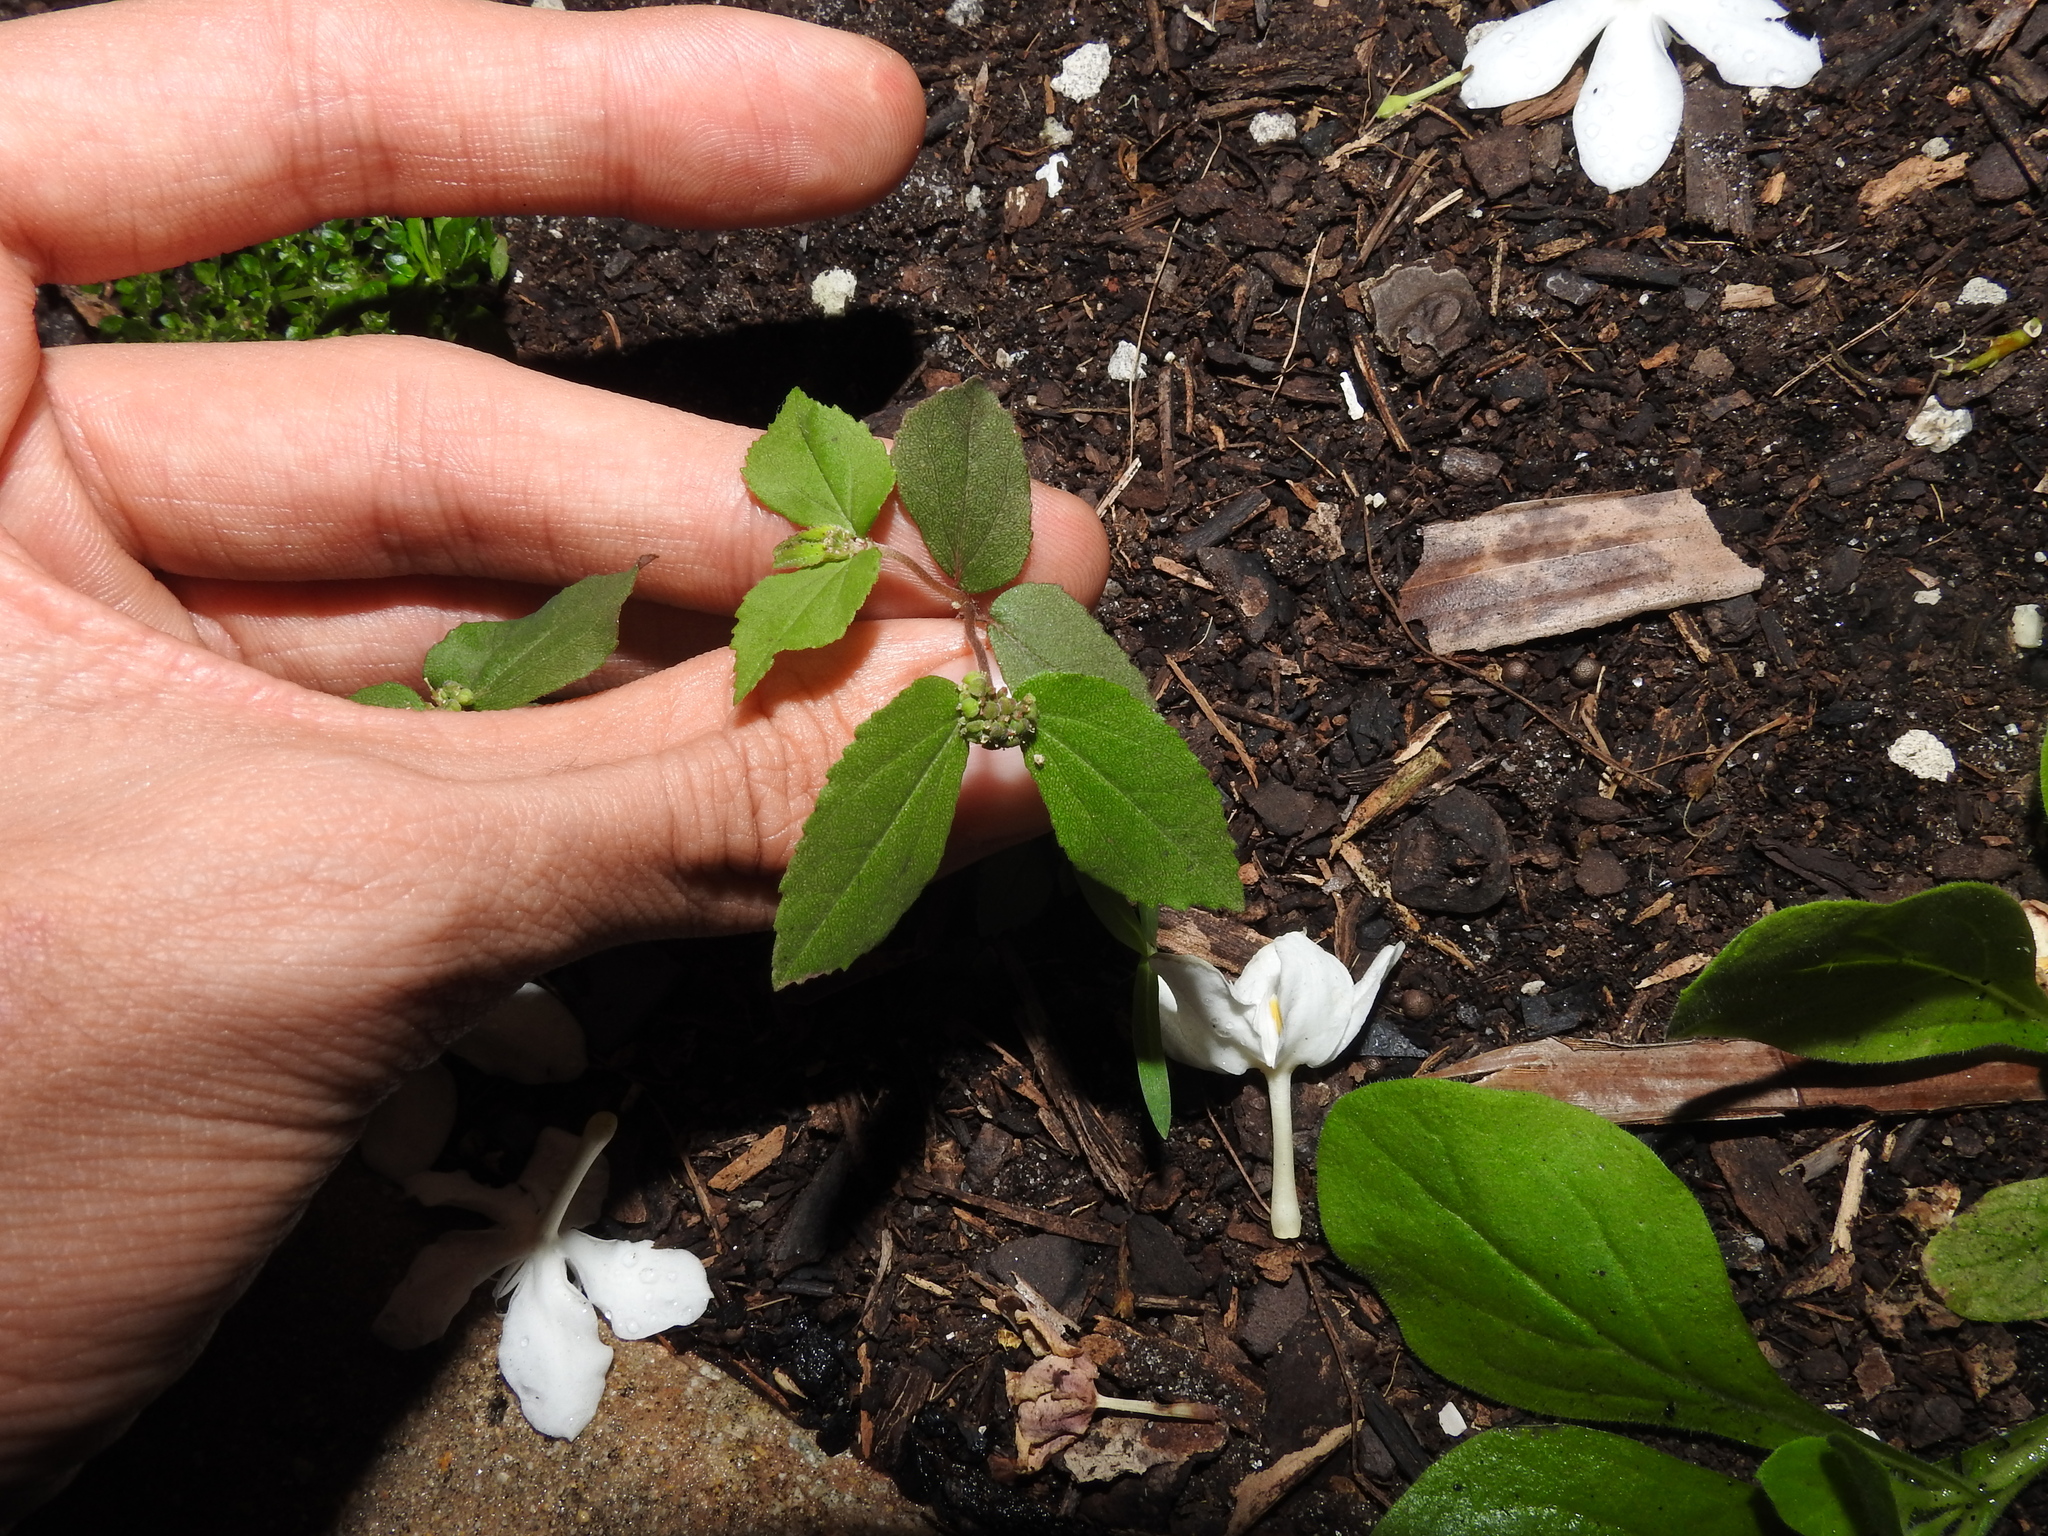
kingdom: Plantae
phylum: Tracheophyta
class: Magnoliopsida
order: Malpighiales
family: Euphorbiaceae
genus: Euphorbia
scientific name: Euphorbia ophthalmica
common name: Florida hammock sandmat
